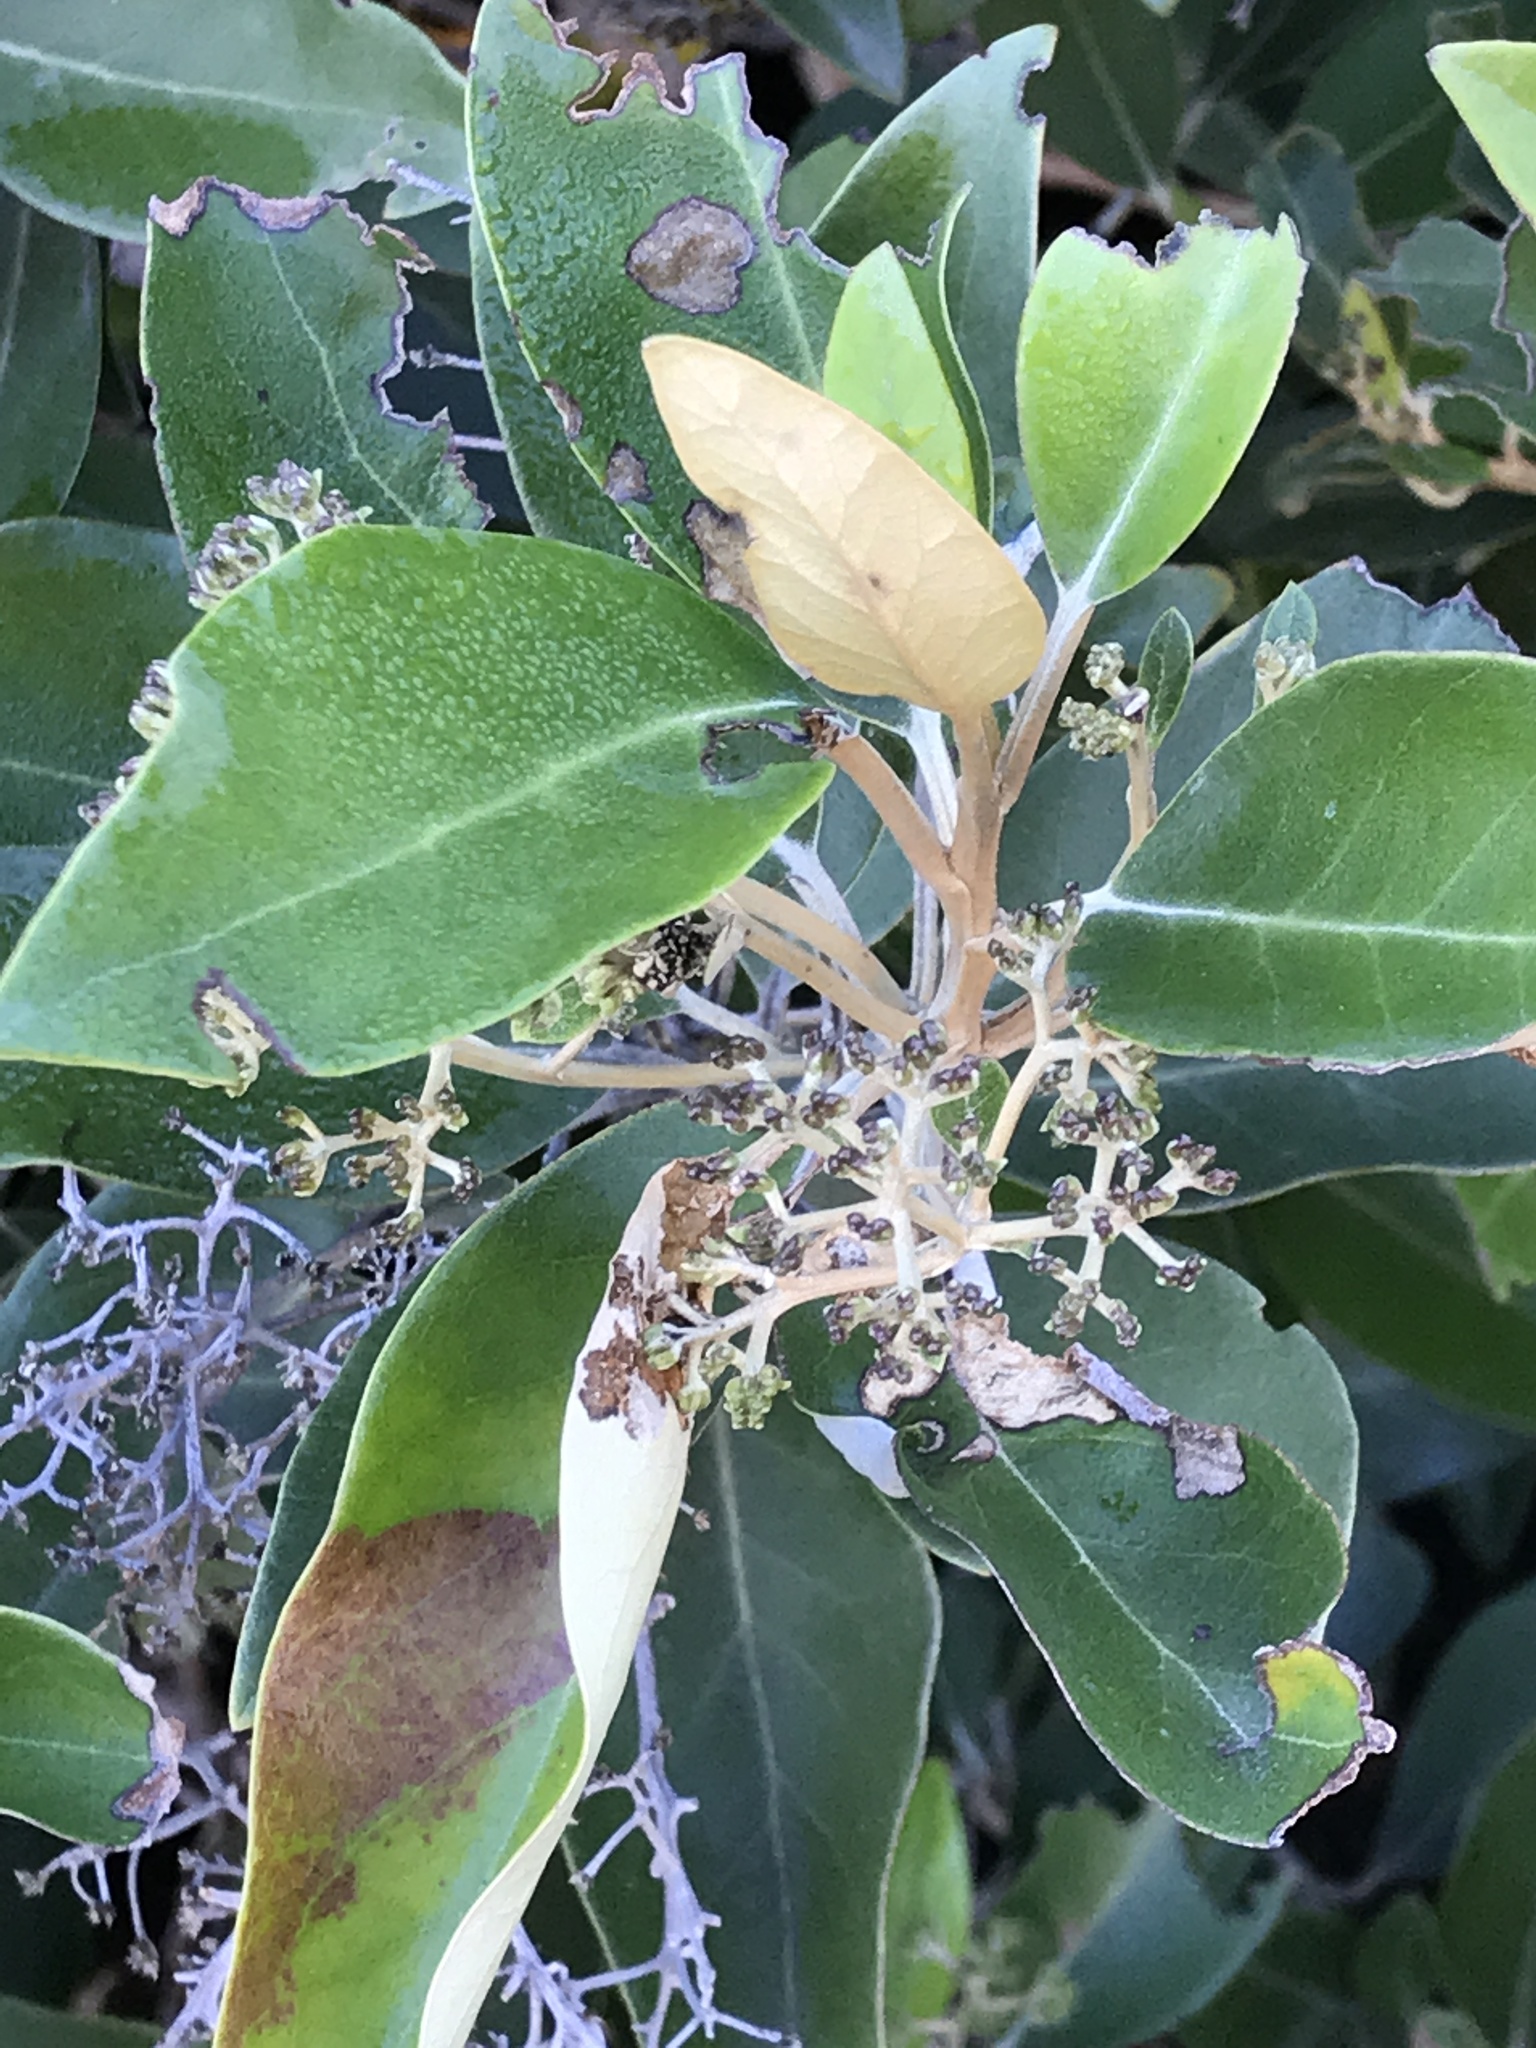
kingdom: Plantae
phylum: Tracheophyta
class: Magnoliopsida
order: Asterales
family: Asteraceae
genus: Olearia
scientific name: Olearia avicenniifolia
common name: Mangrove-leaf daisybush
